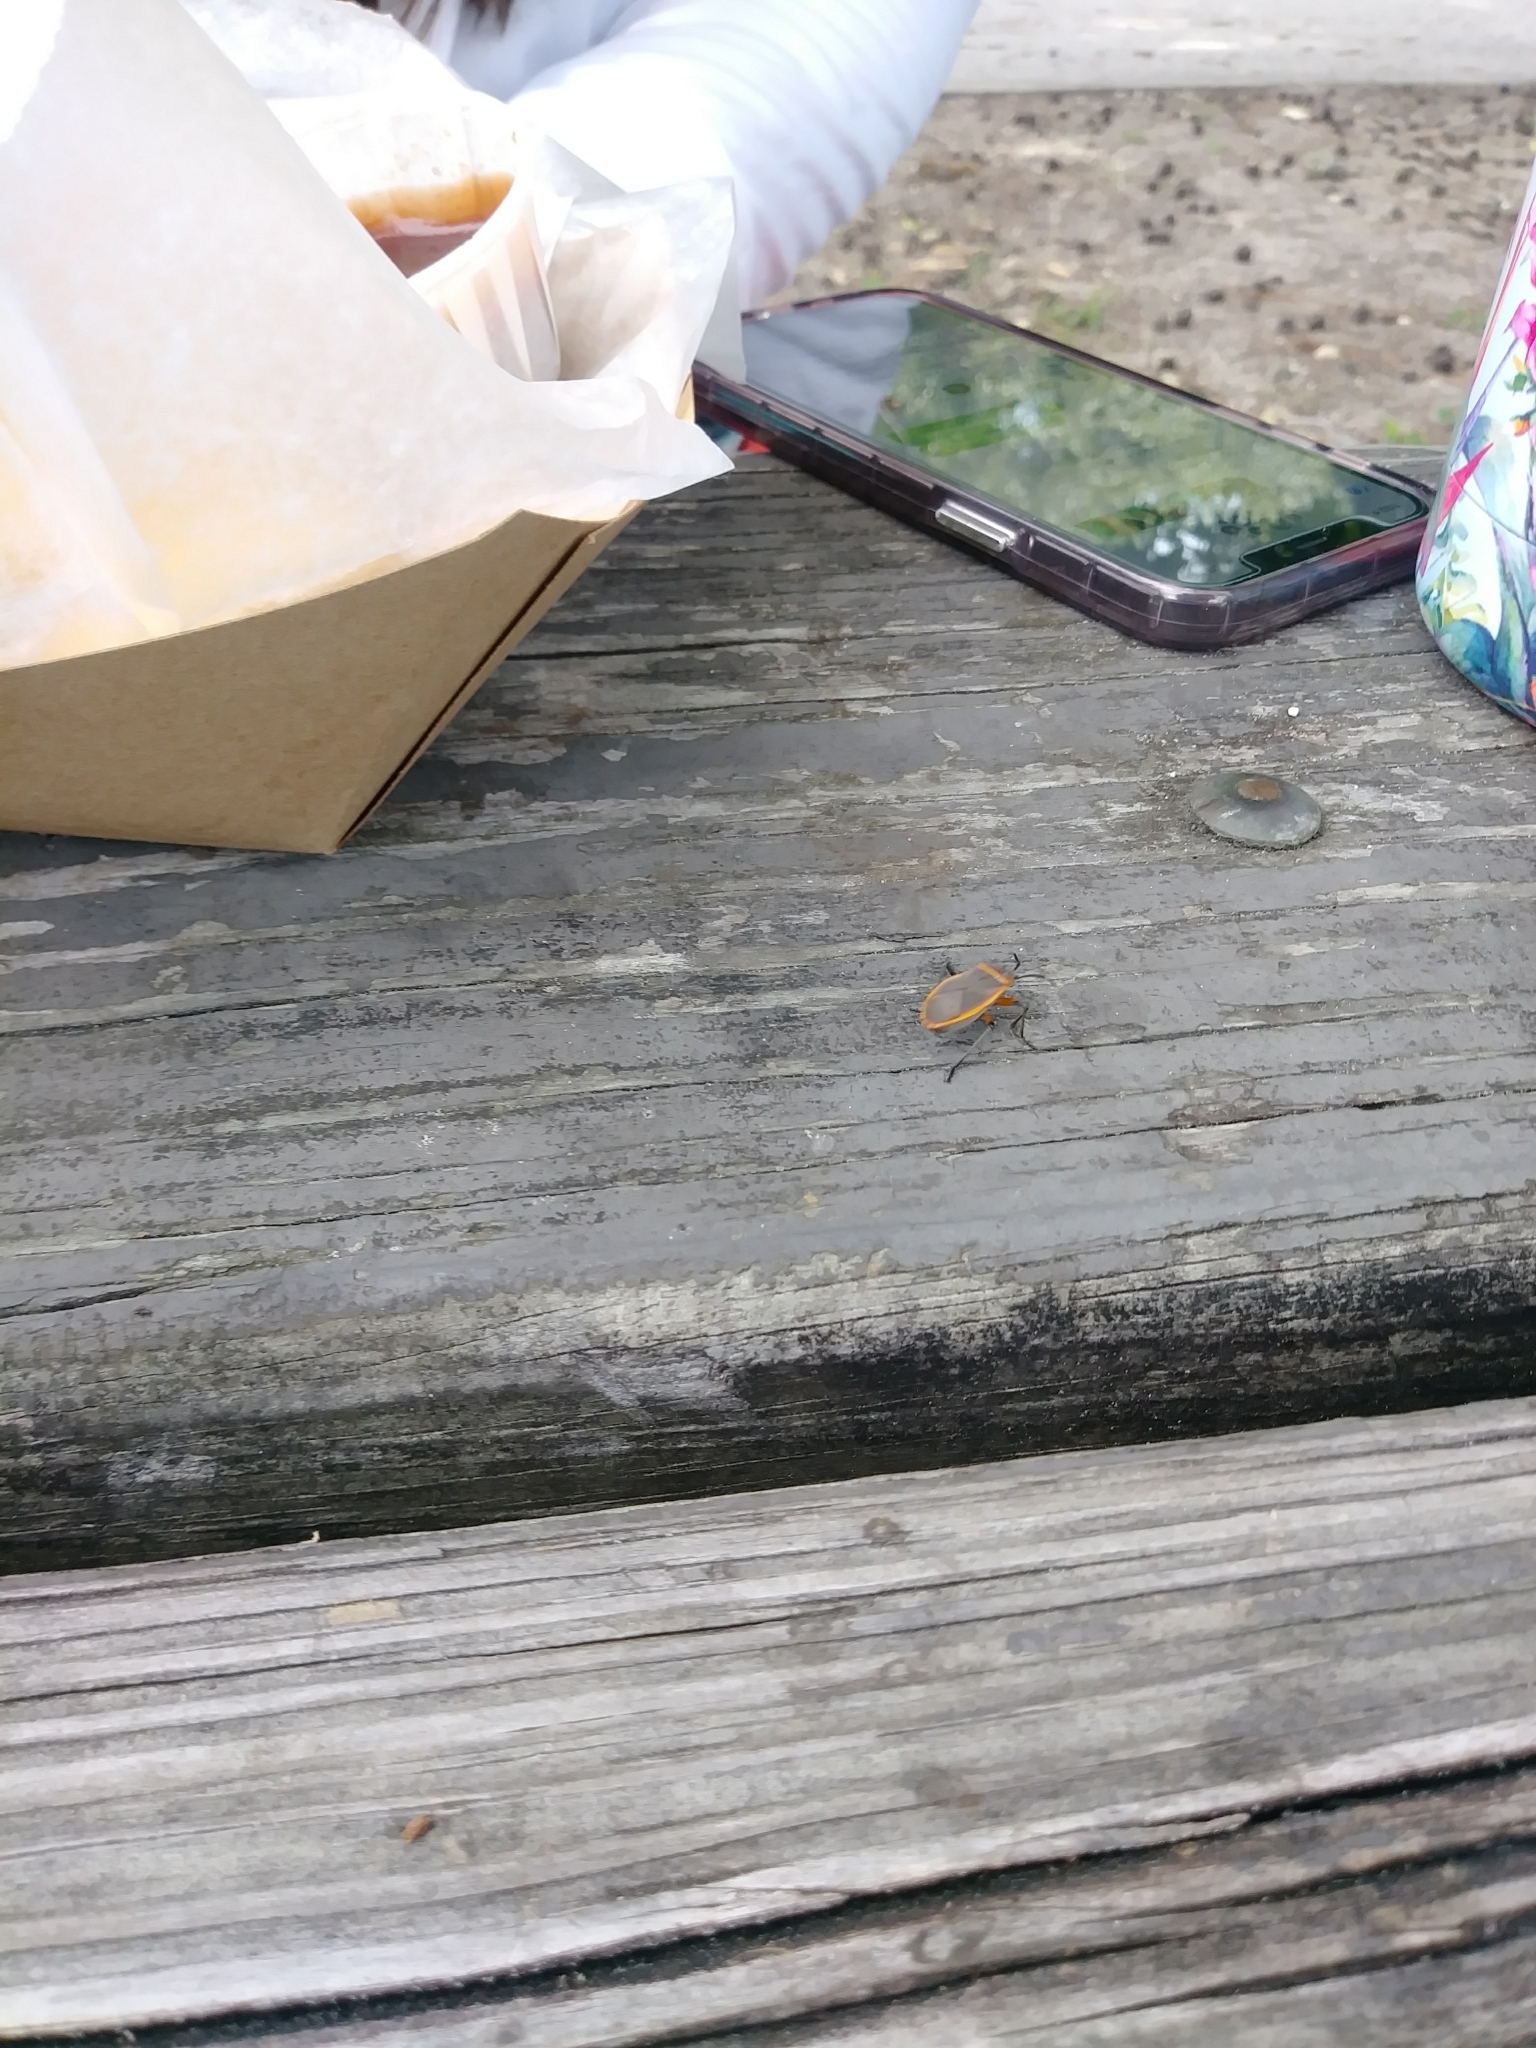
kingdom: Animalia
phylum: Arthropoda
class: Insecta
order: Hemiptera
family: Largidae
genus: Largus
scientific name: Largus succinctus
